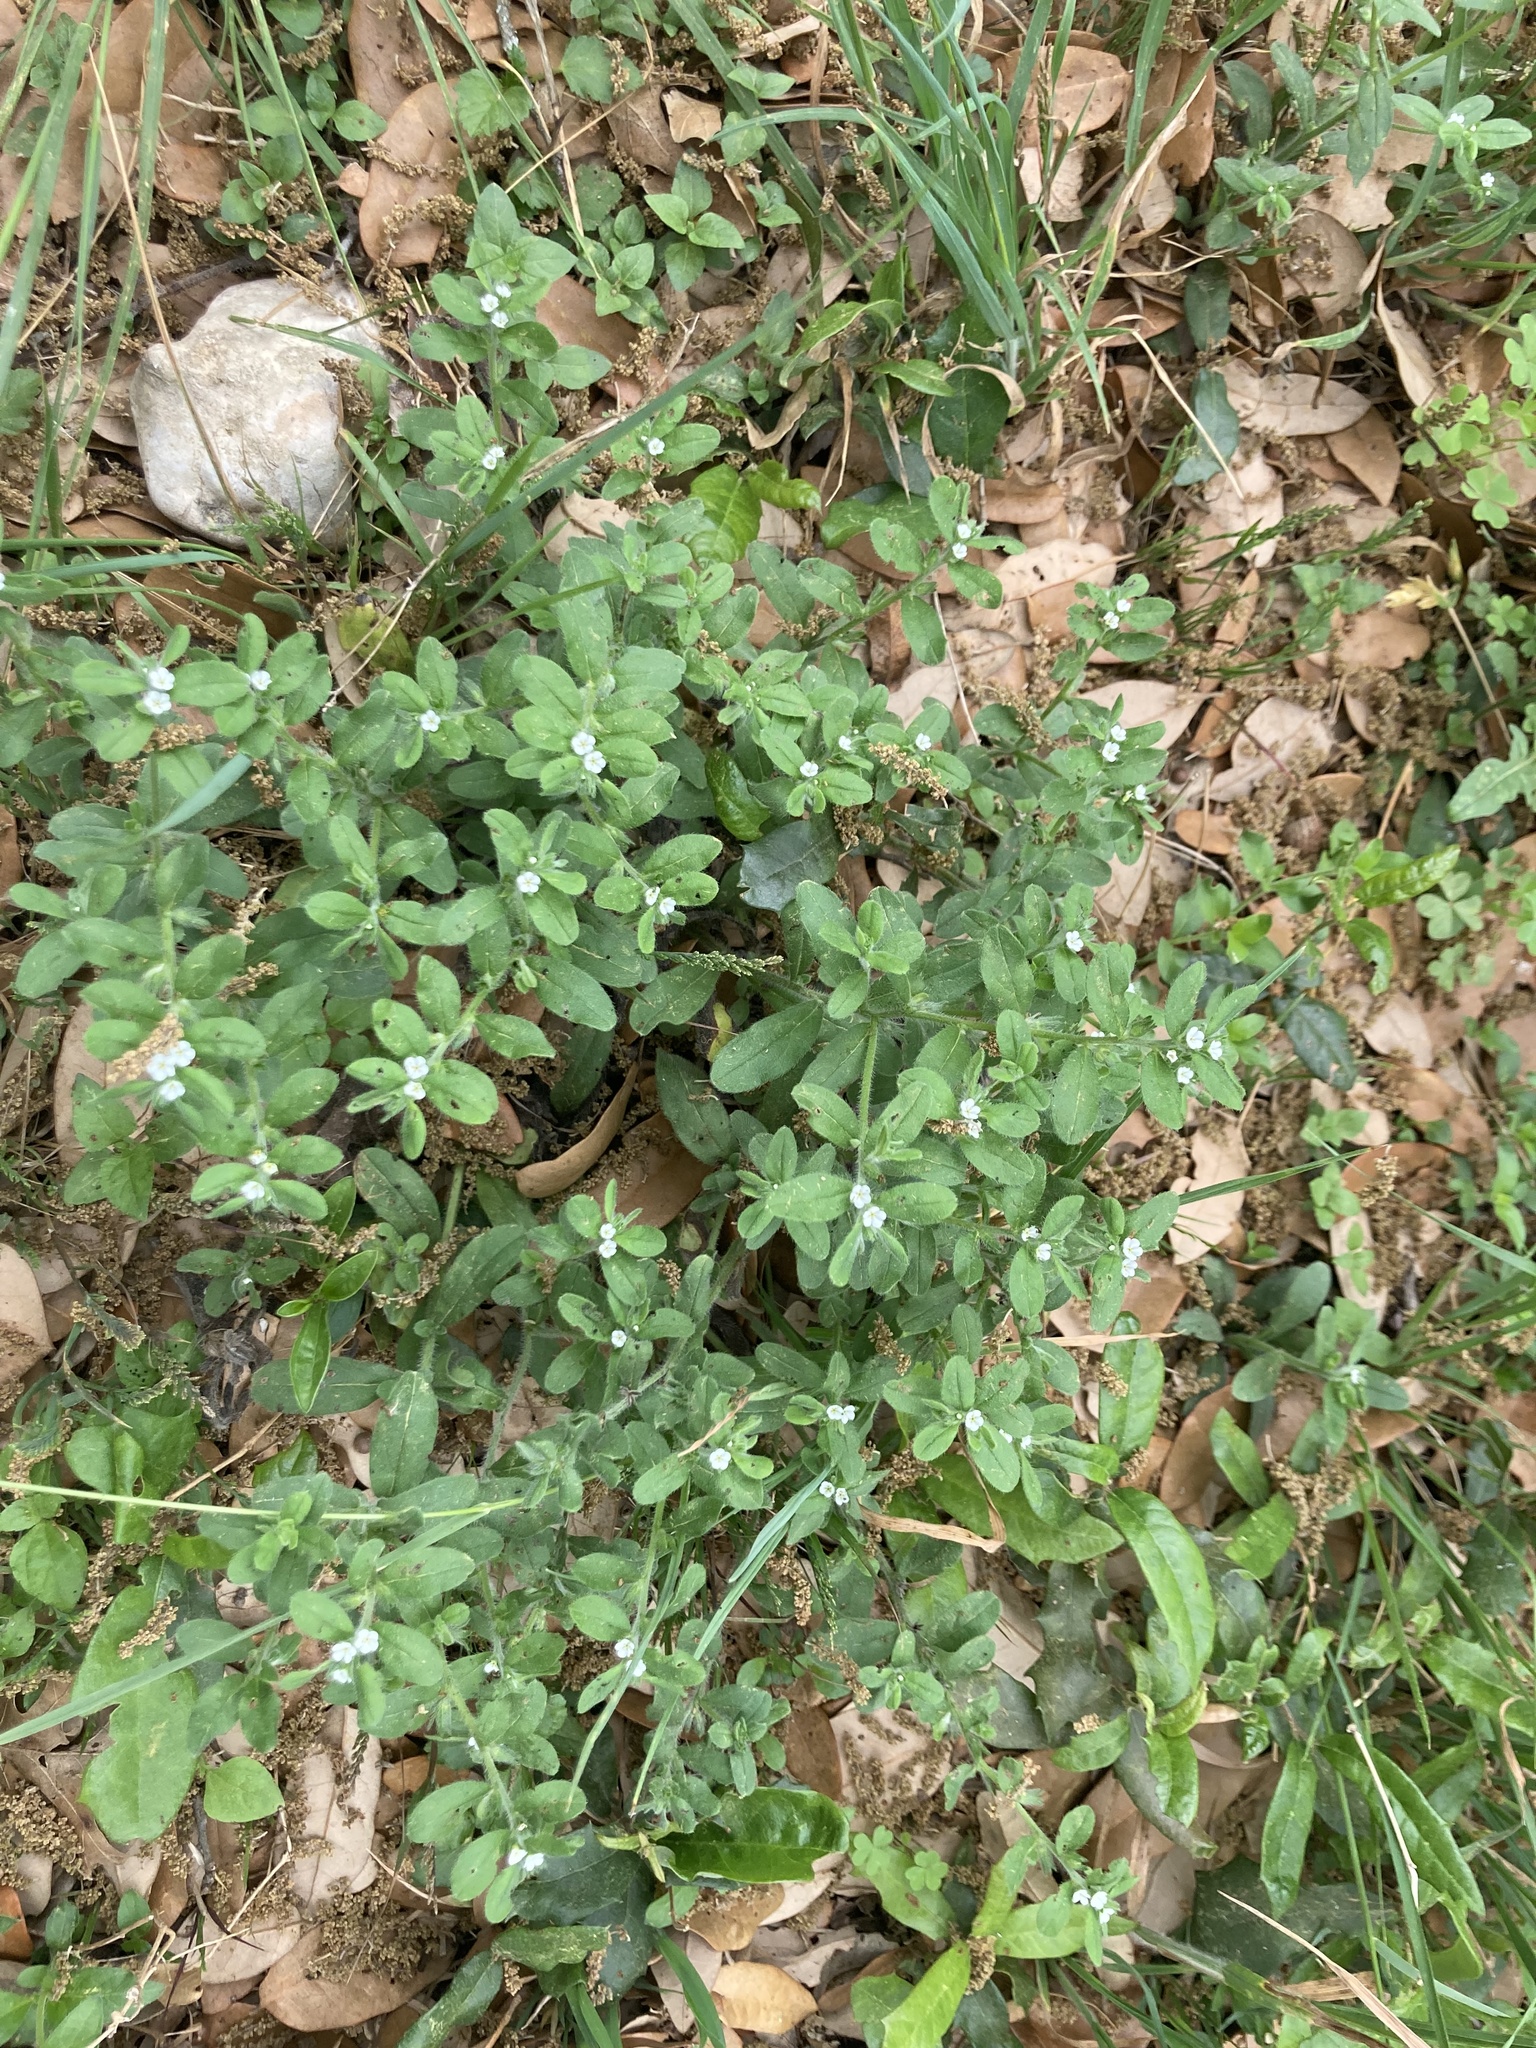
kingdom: Plantae
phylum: Tracheophyta
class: Magnoliopsida
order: Boraginales
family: Boraginaceae
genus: Lithospermum
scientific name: Lithospermum matamorense
